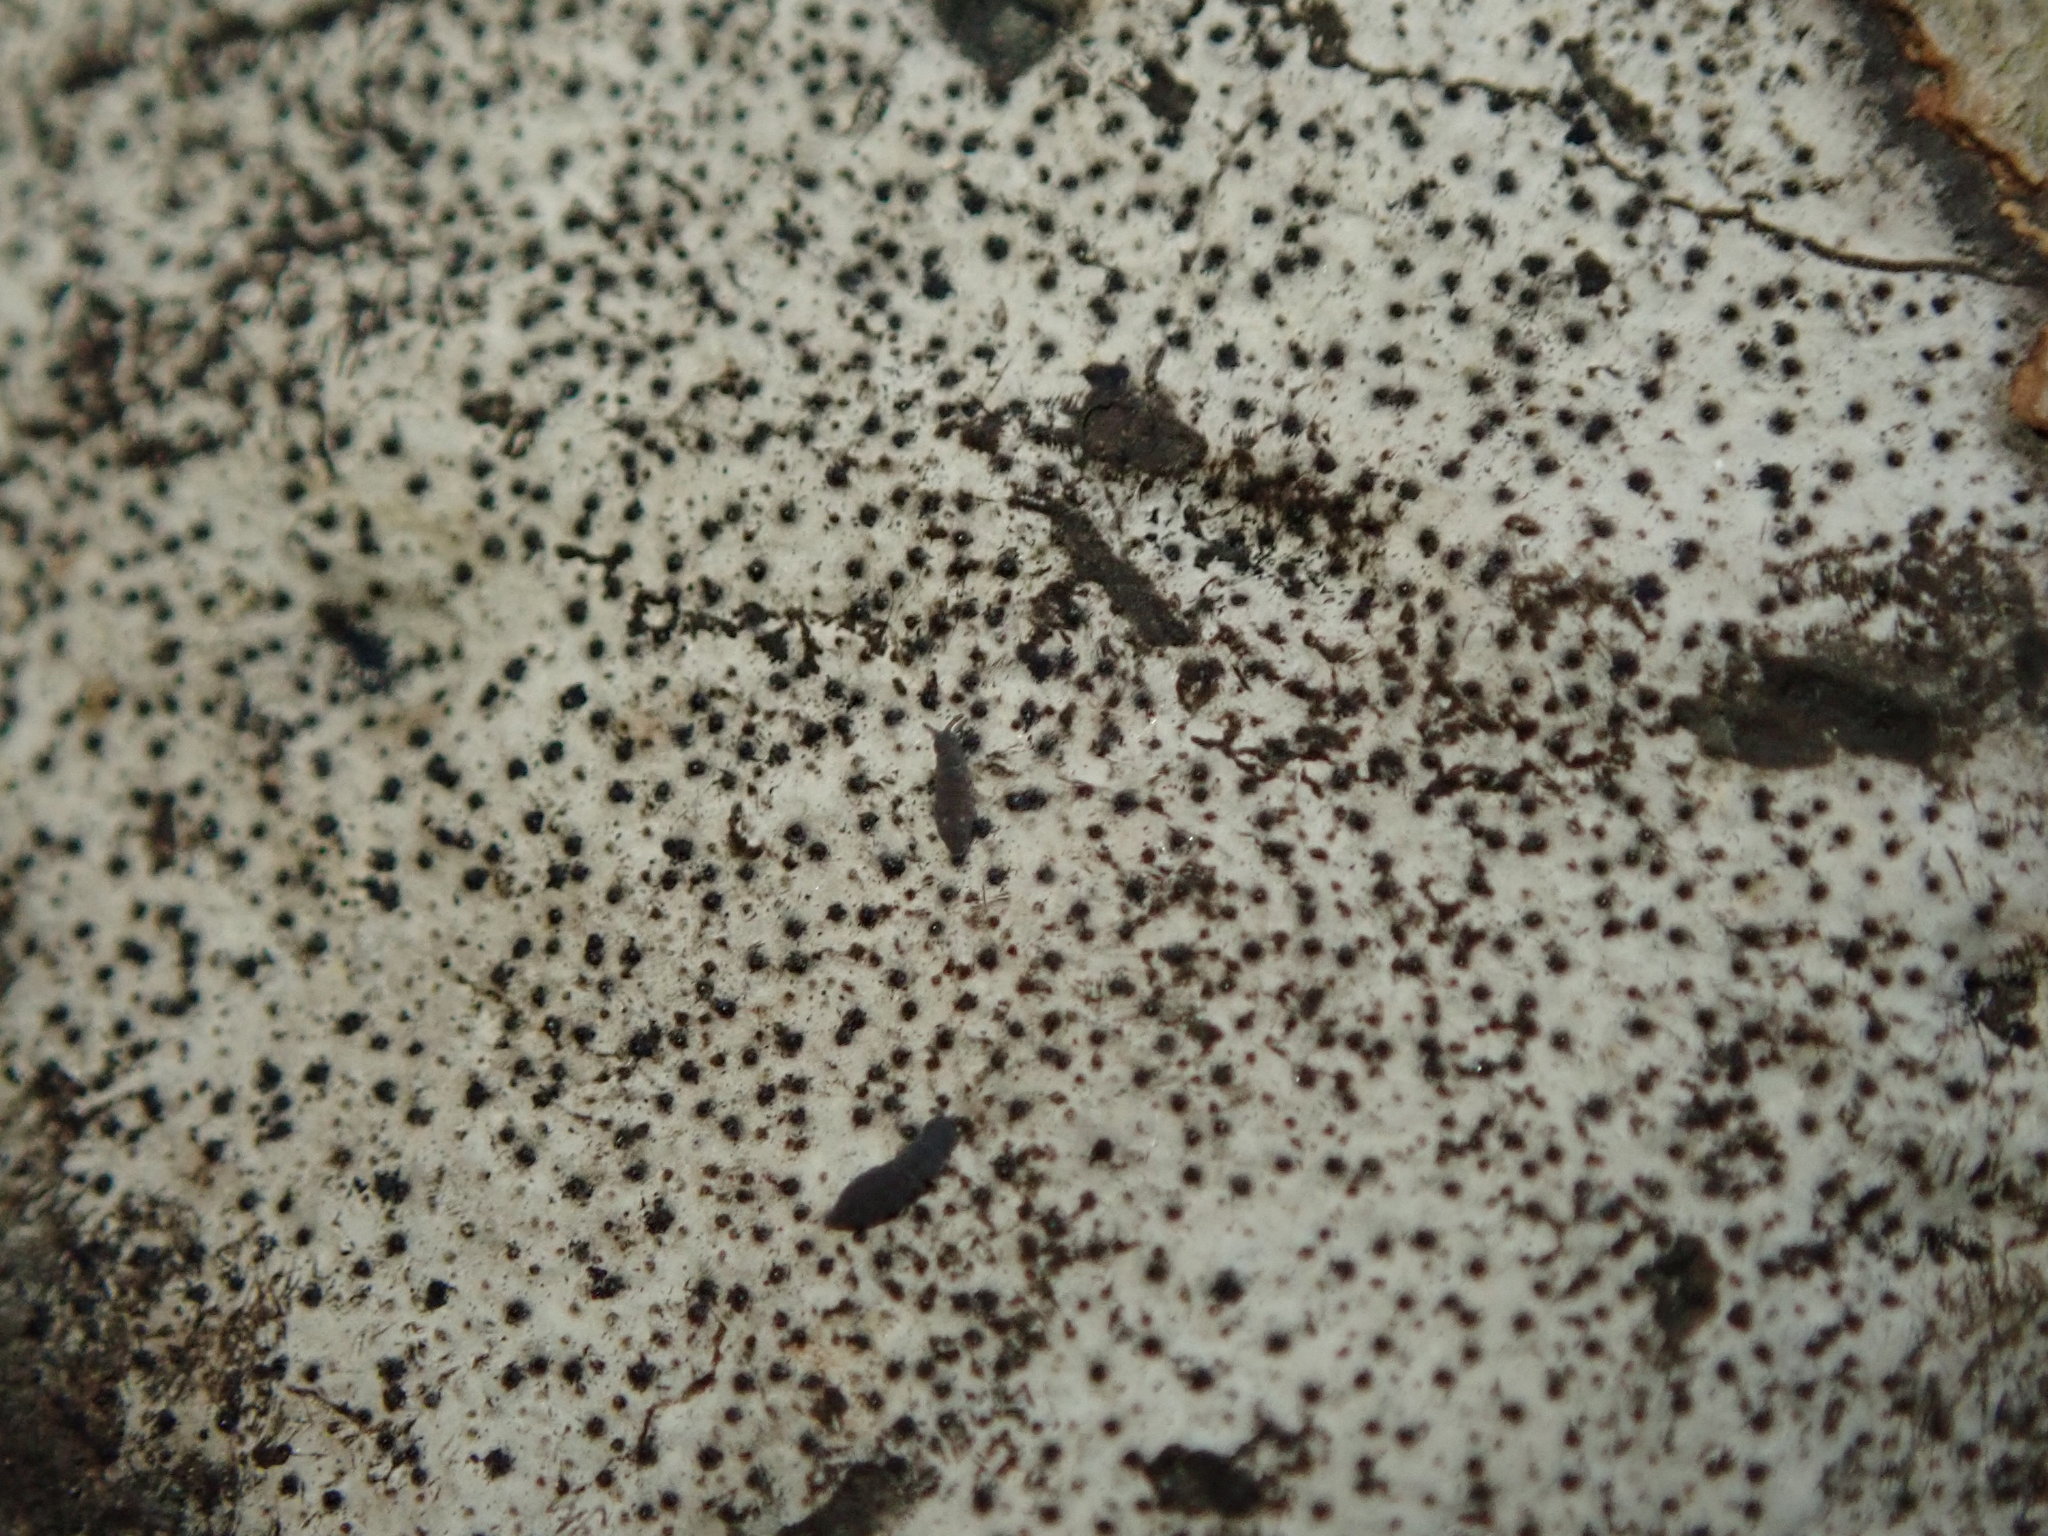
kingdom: Fungi
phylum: Ascomycota
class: Sordariomycetes
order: Xylariales
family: Graphostromataceae
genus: Biscogniauxia
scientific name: Biscogniauxia atropunctata
